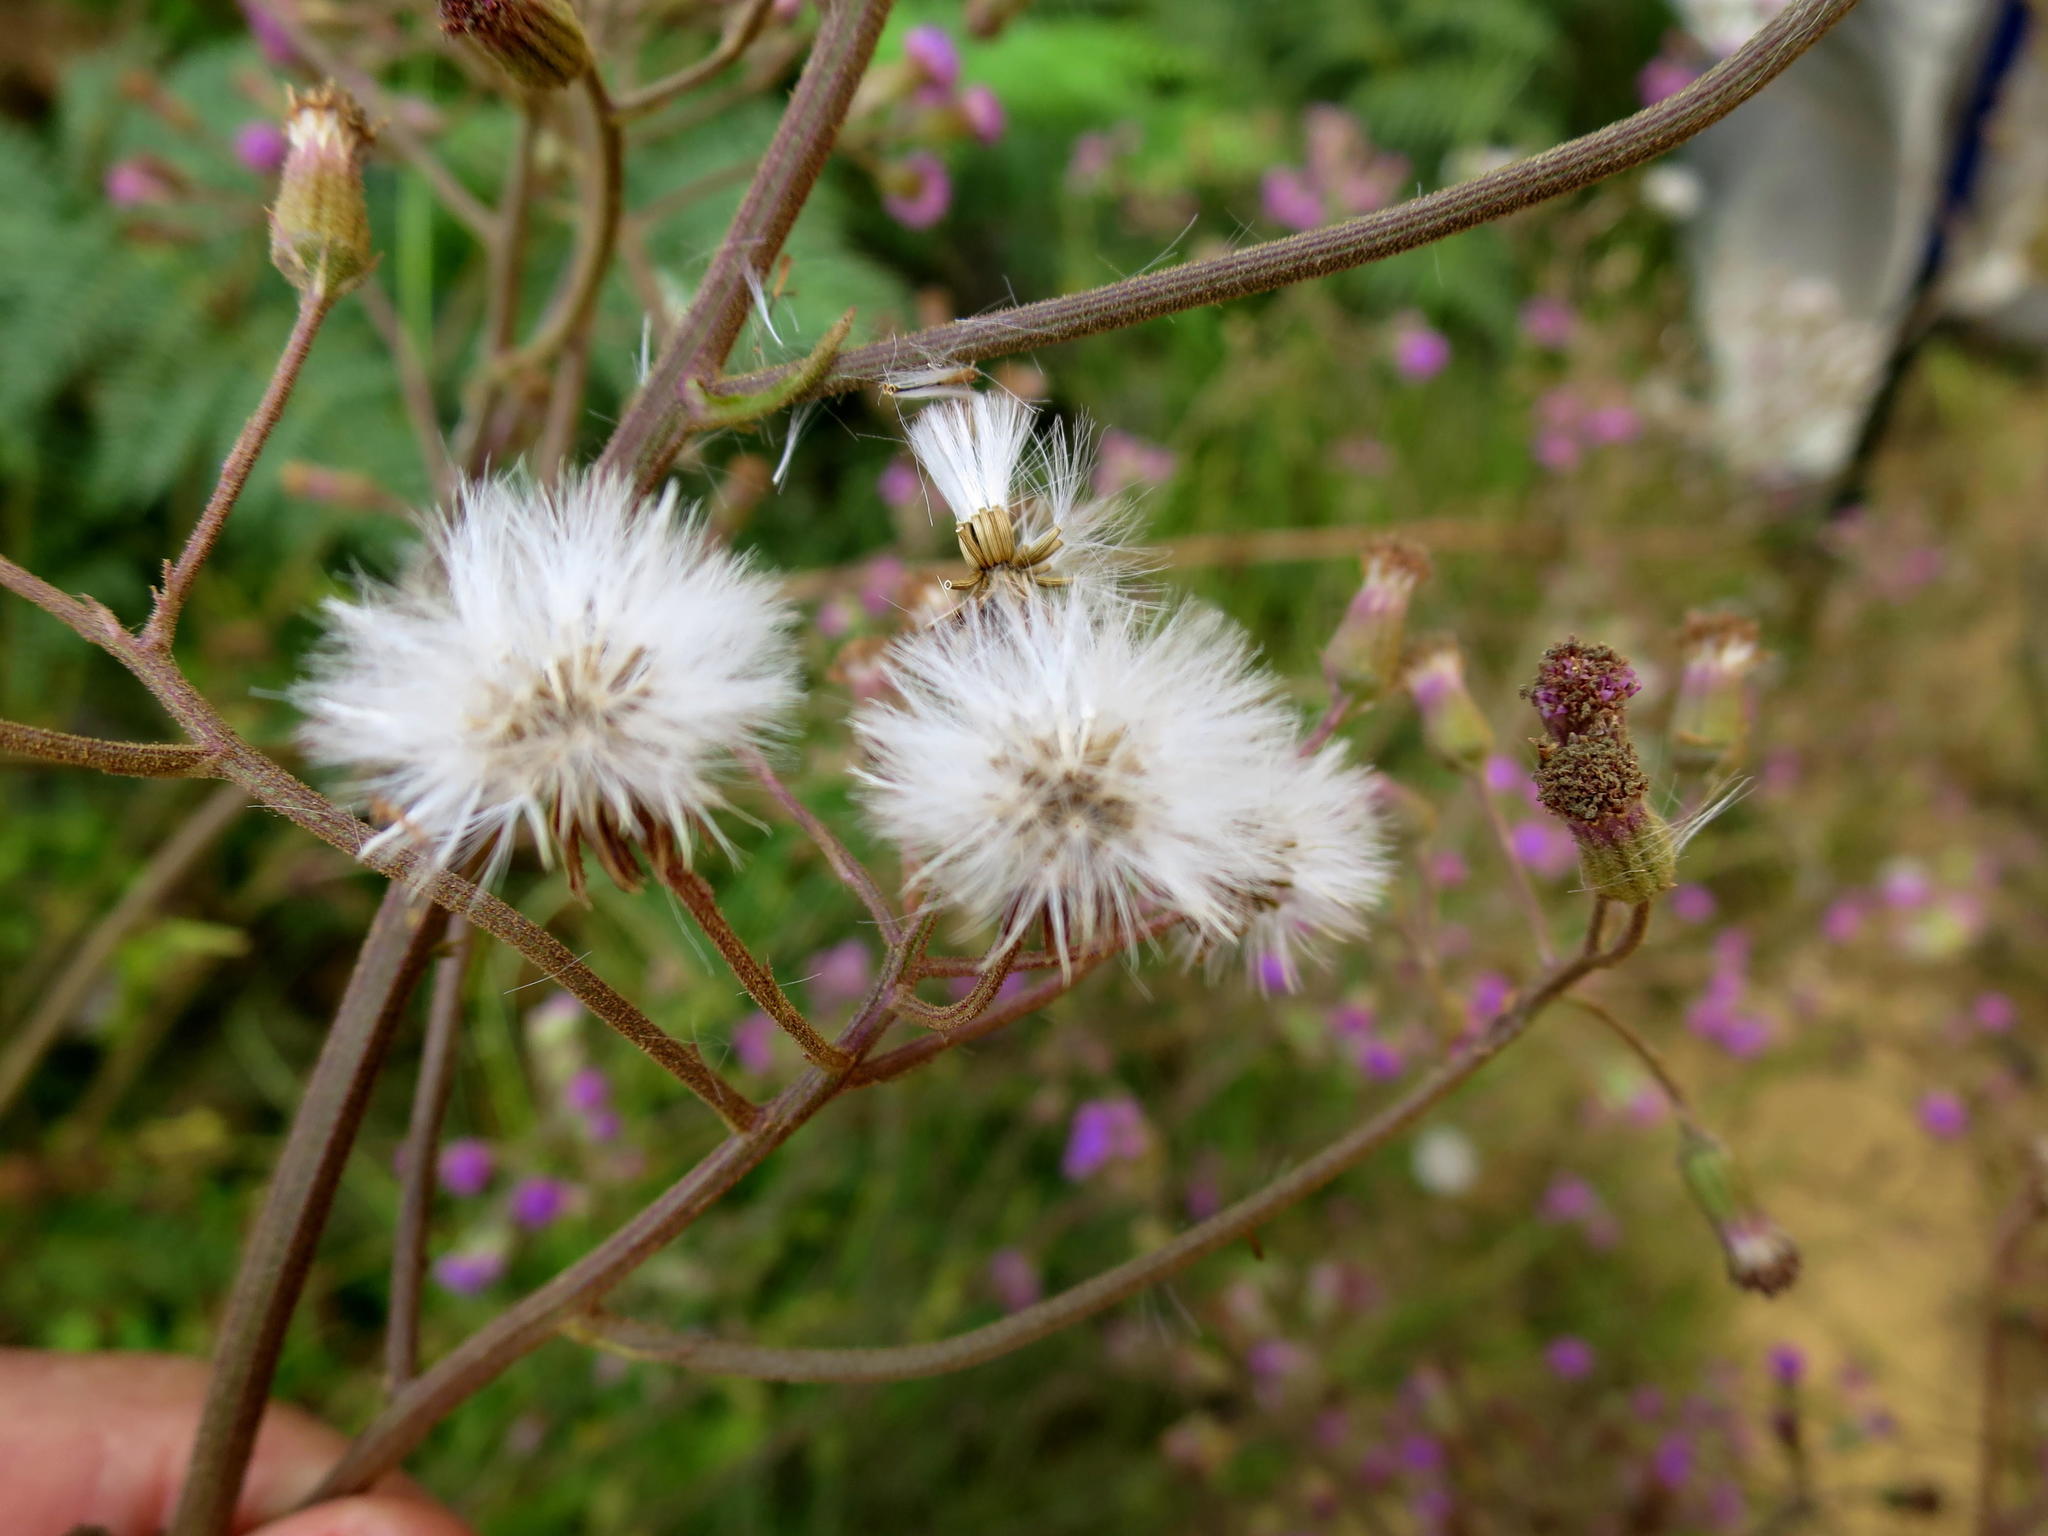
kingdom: Plantae
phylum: Tracheophyta
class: Magnoliopsida
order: Asterales
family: Asteraceae
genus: Senecio
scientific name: Senecio purpureus
